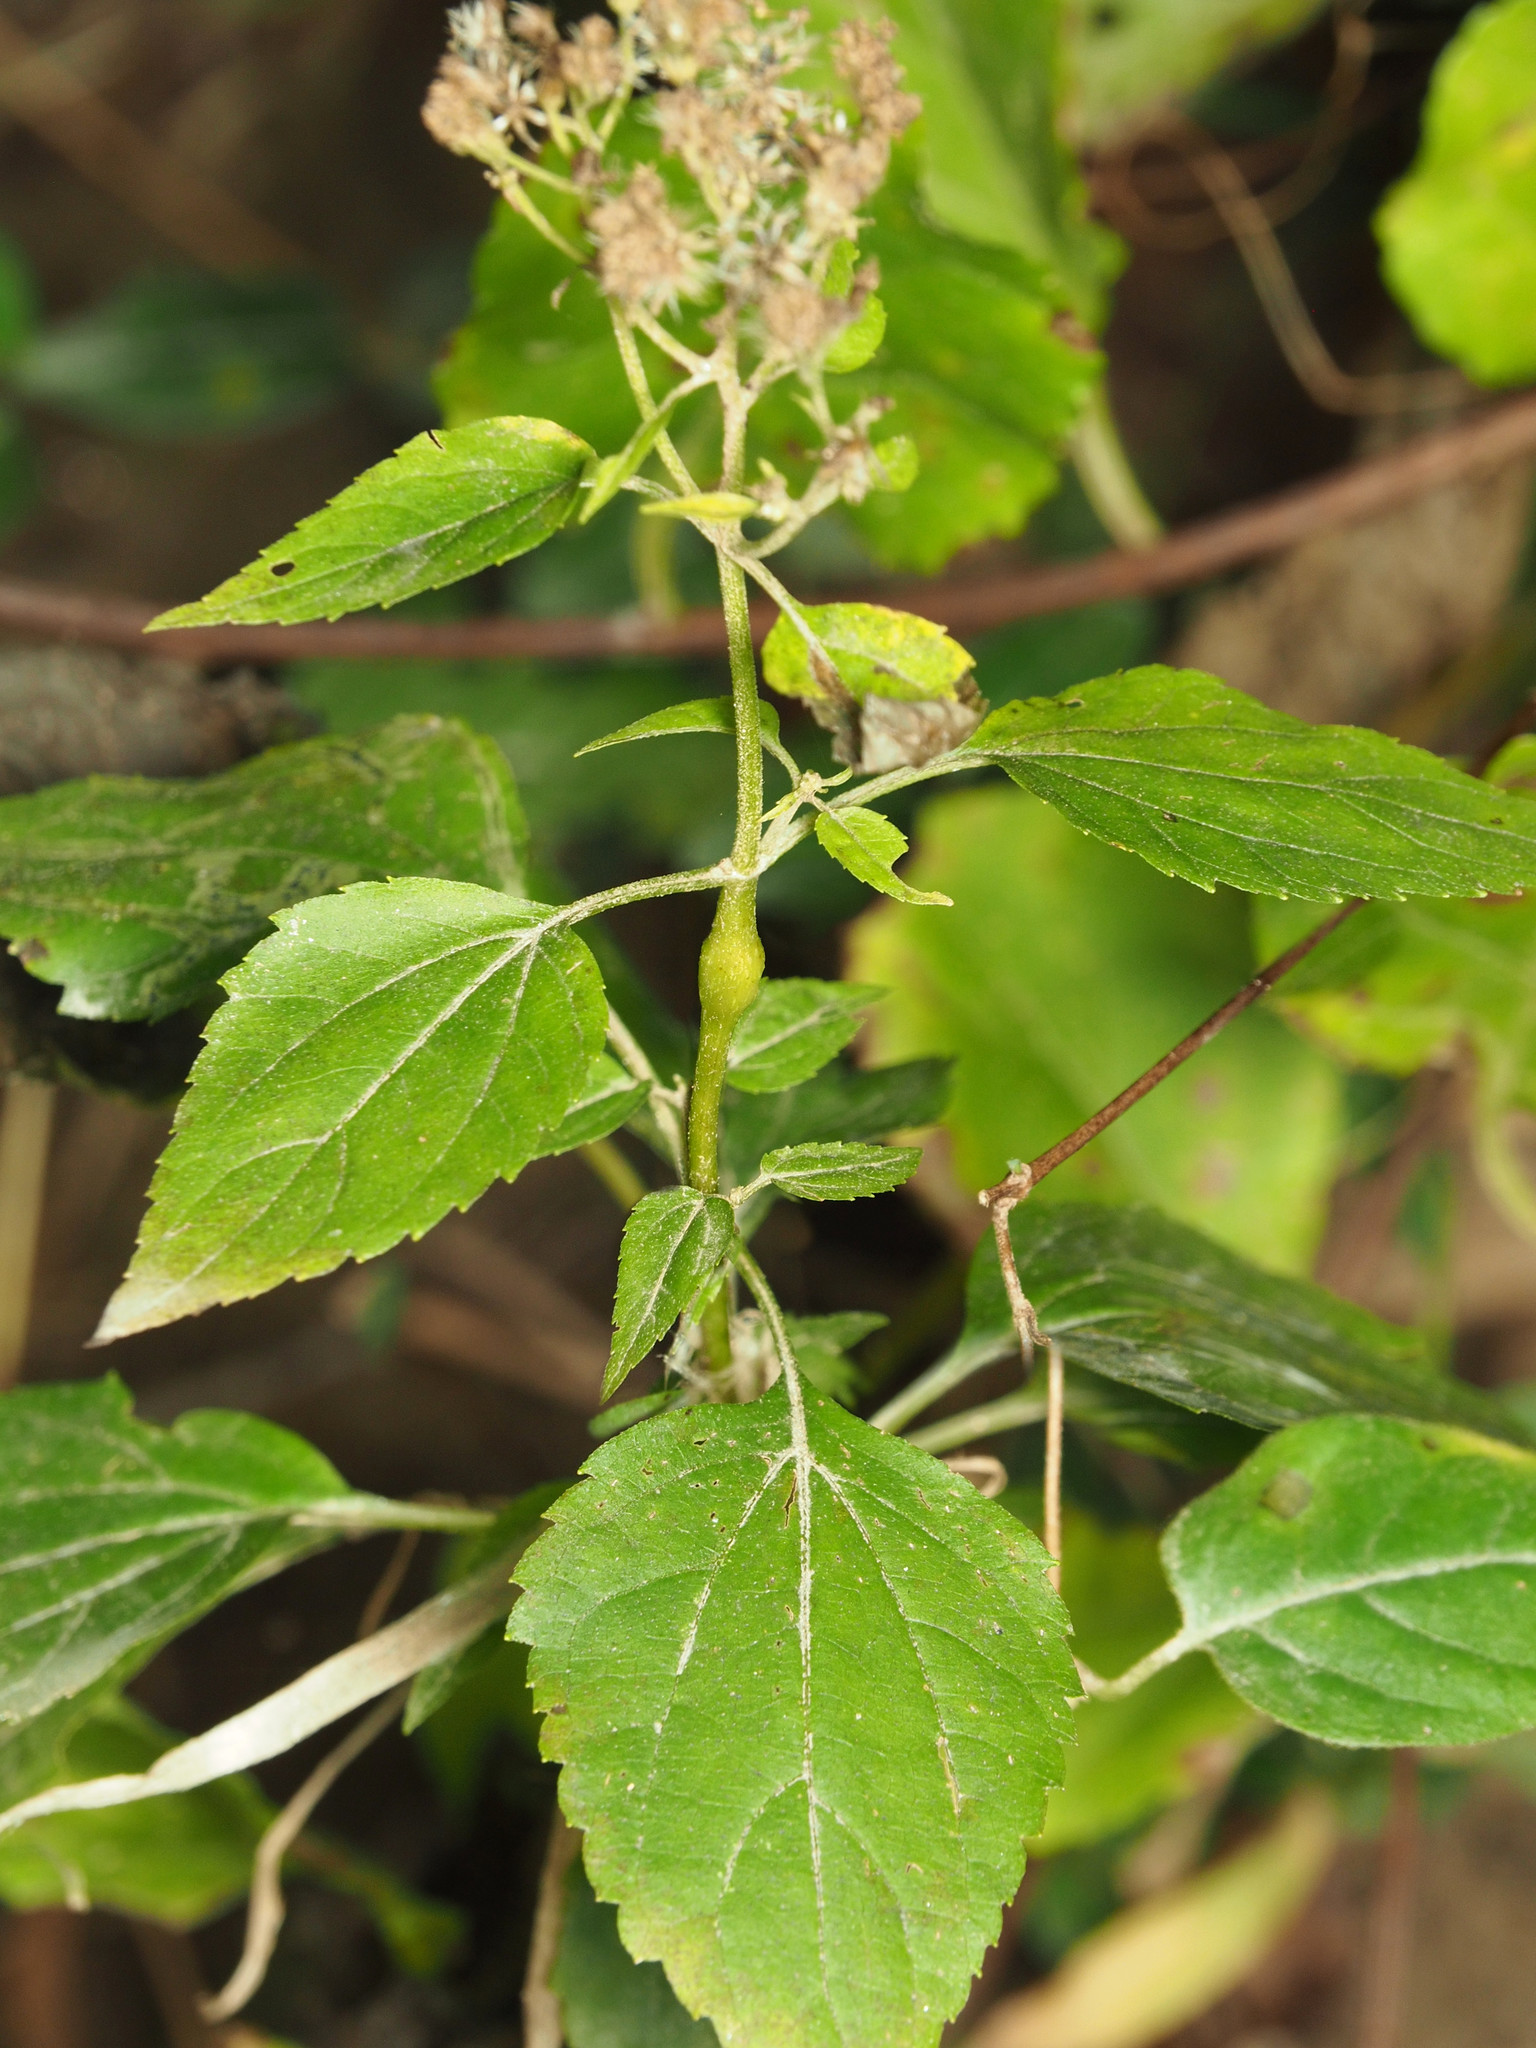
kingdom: Animalia
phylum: Arthropoda
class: Insecta
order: Diptera
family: Cecidomyiidae
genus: Neolasioptera
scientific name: Neolasioptera eupatorii
